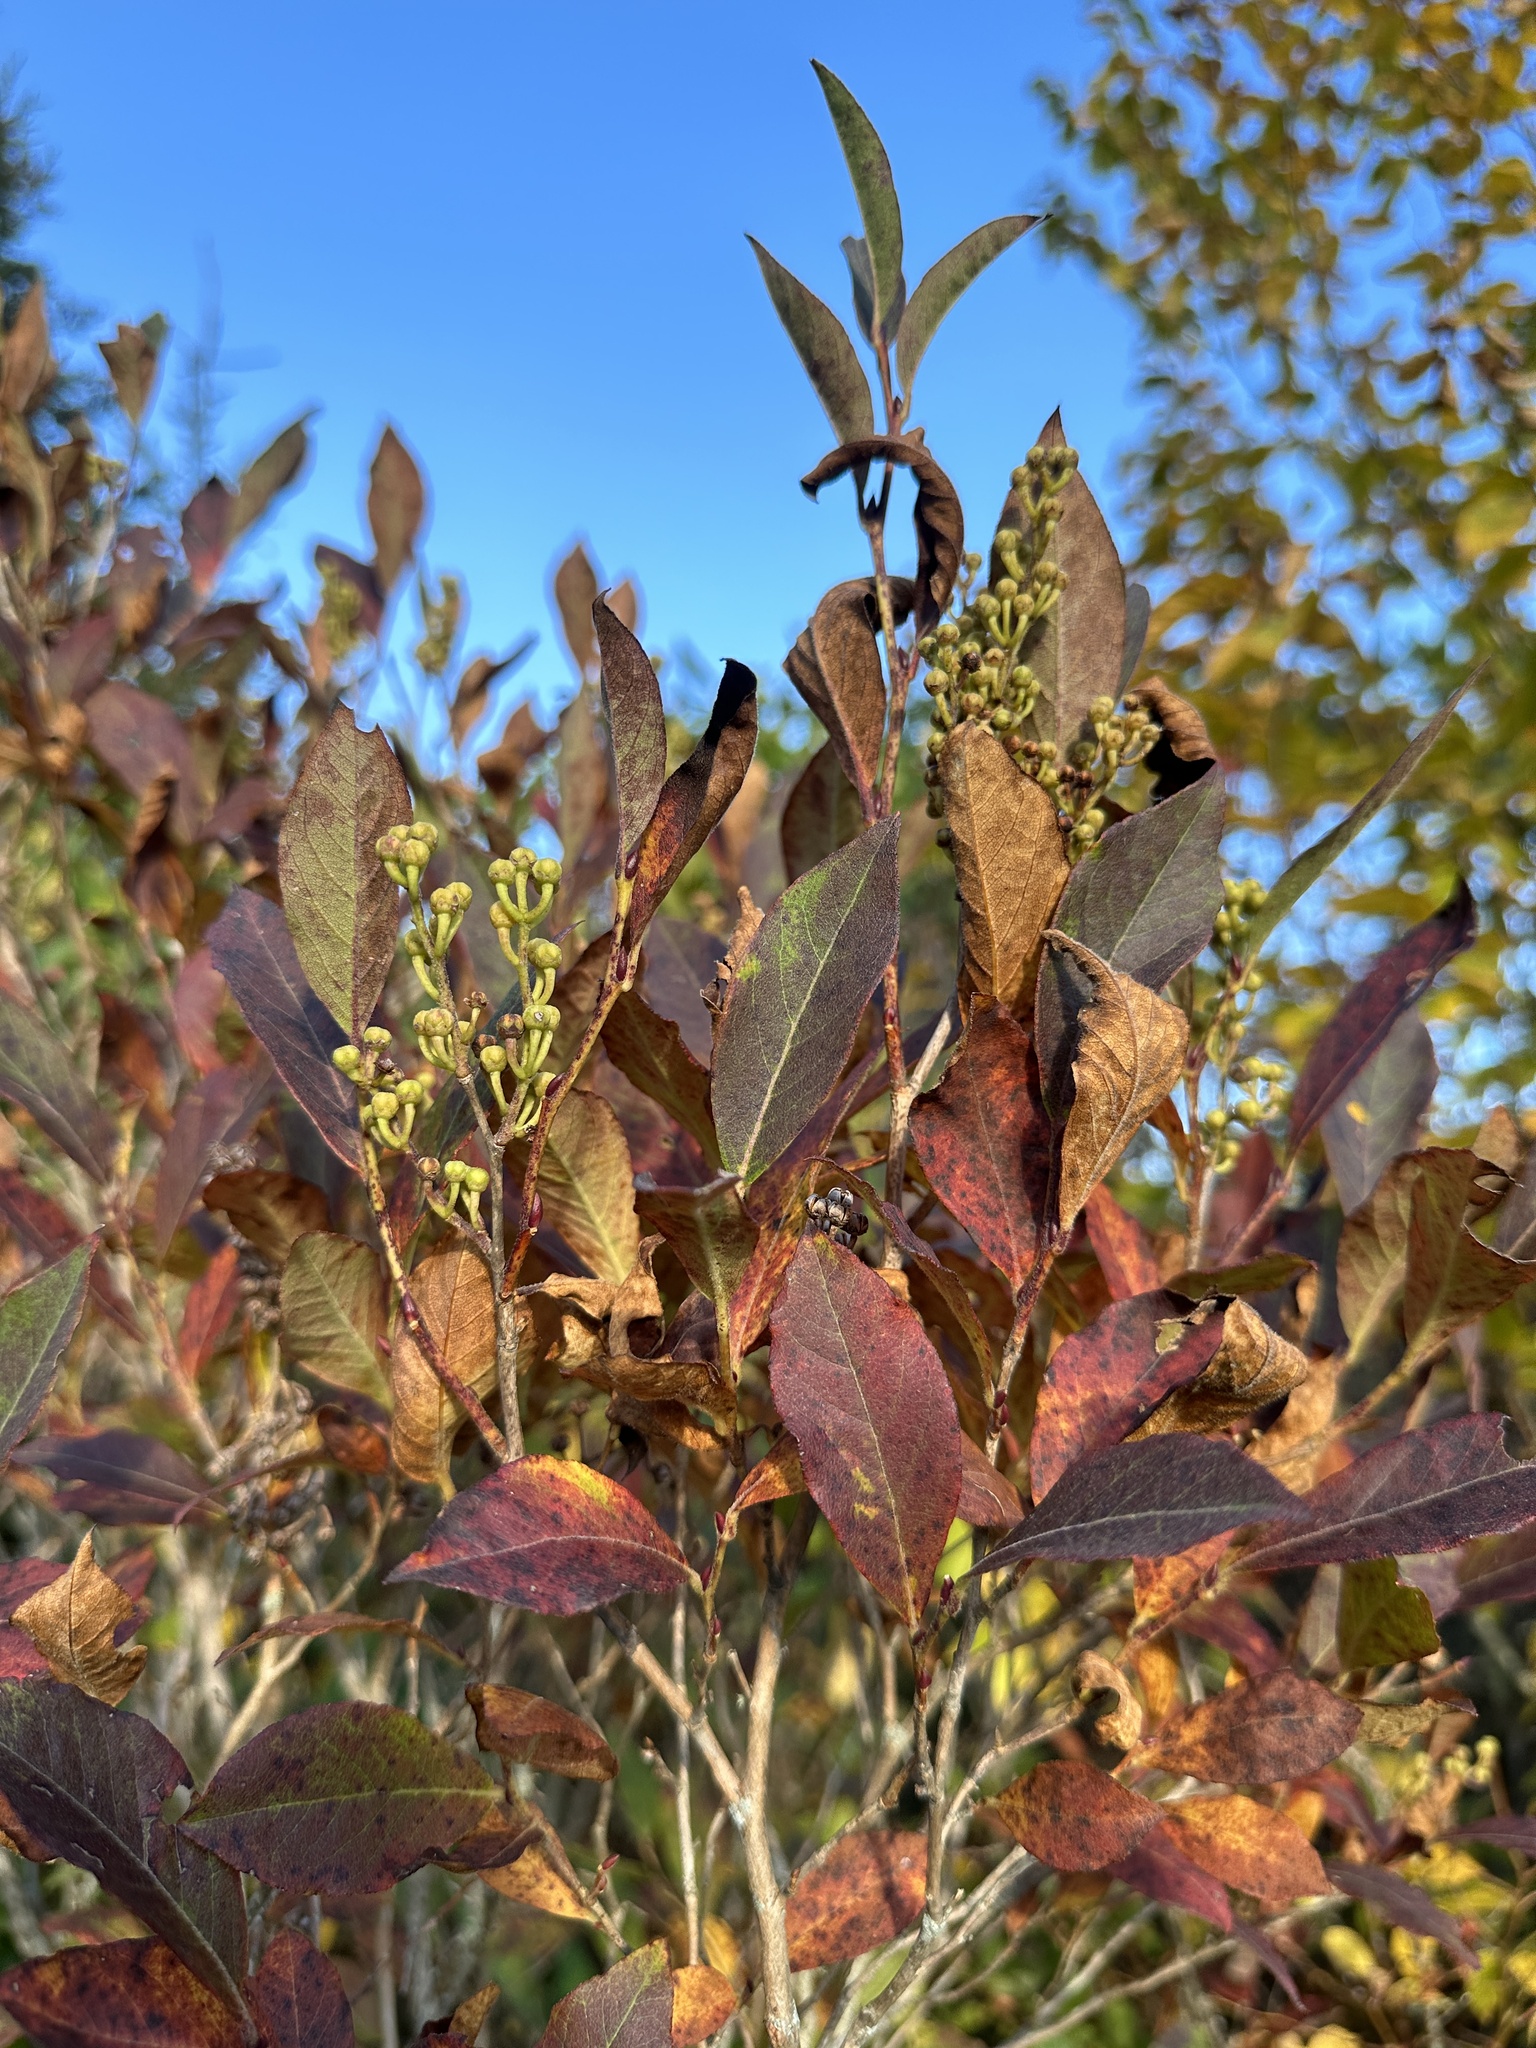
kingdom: Plantae
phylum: Tracheophyta
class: Magnoliopsida
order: Ericales
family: Ericaceae
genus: Lyonia
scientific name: Lyonia ligustrina
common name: Maleberry
